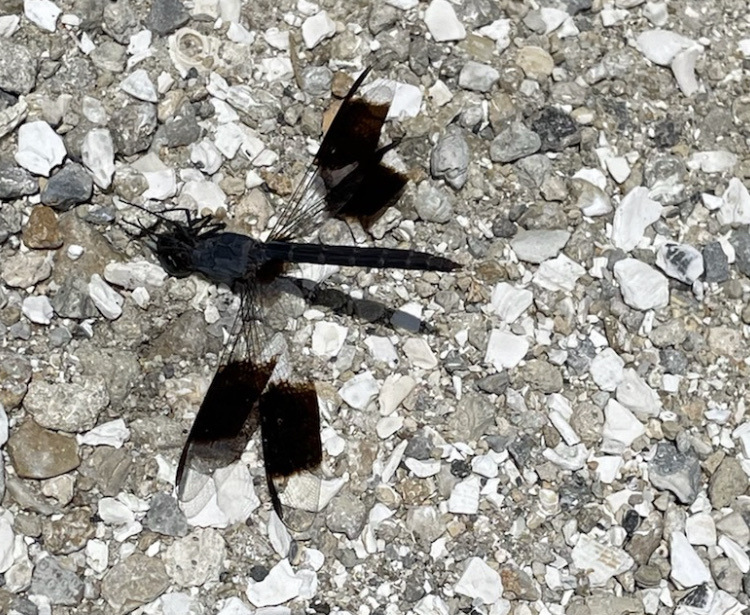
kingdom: Animalia
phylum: Arthropoda
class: Insecta
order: Odonata
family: Libellulidae
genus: Erythrodiplax
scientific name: Erythrodiplax umbrata
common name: Band-winged dragonlet
